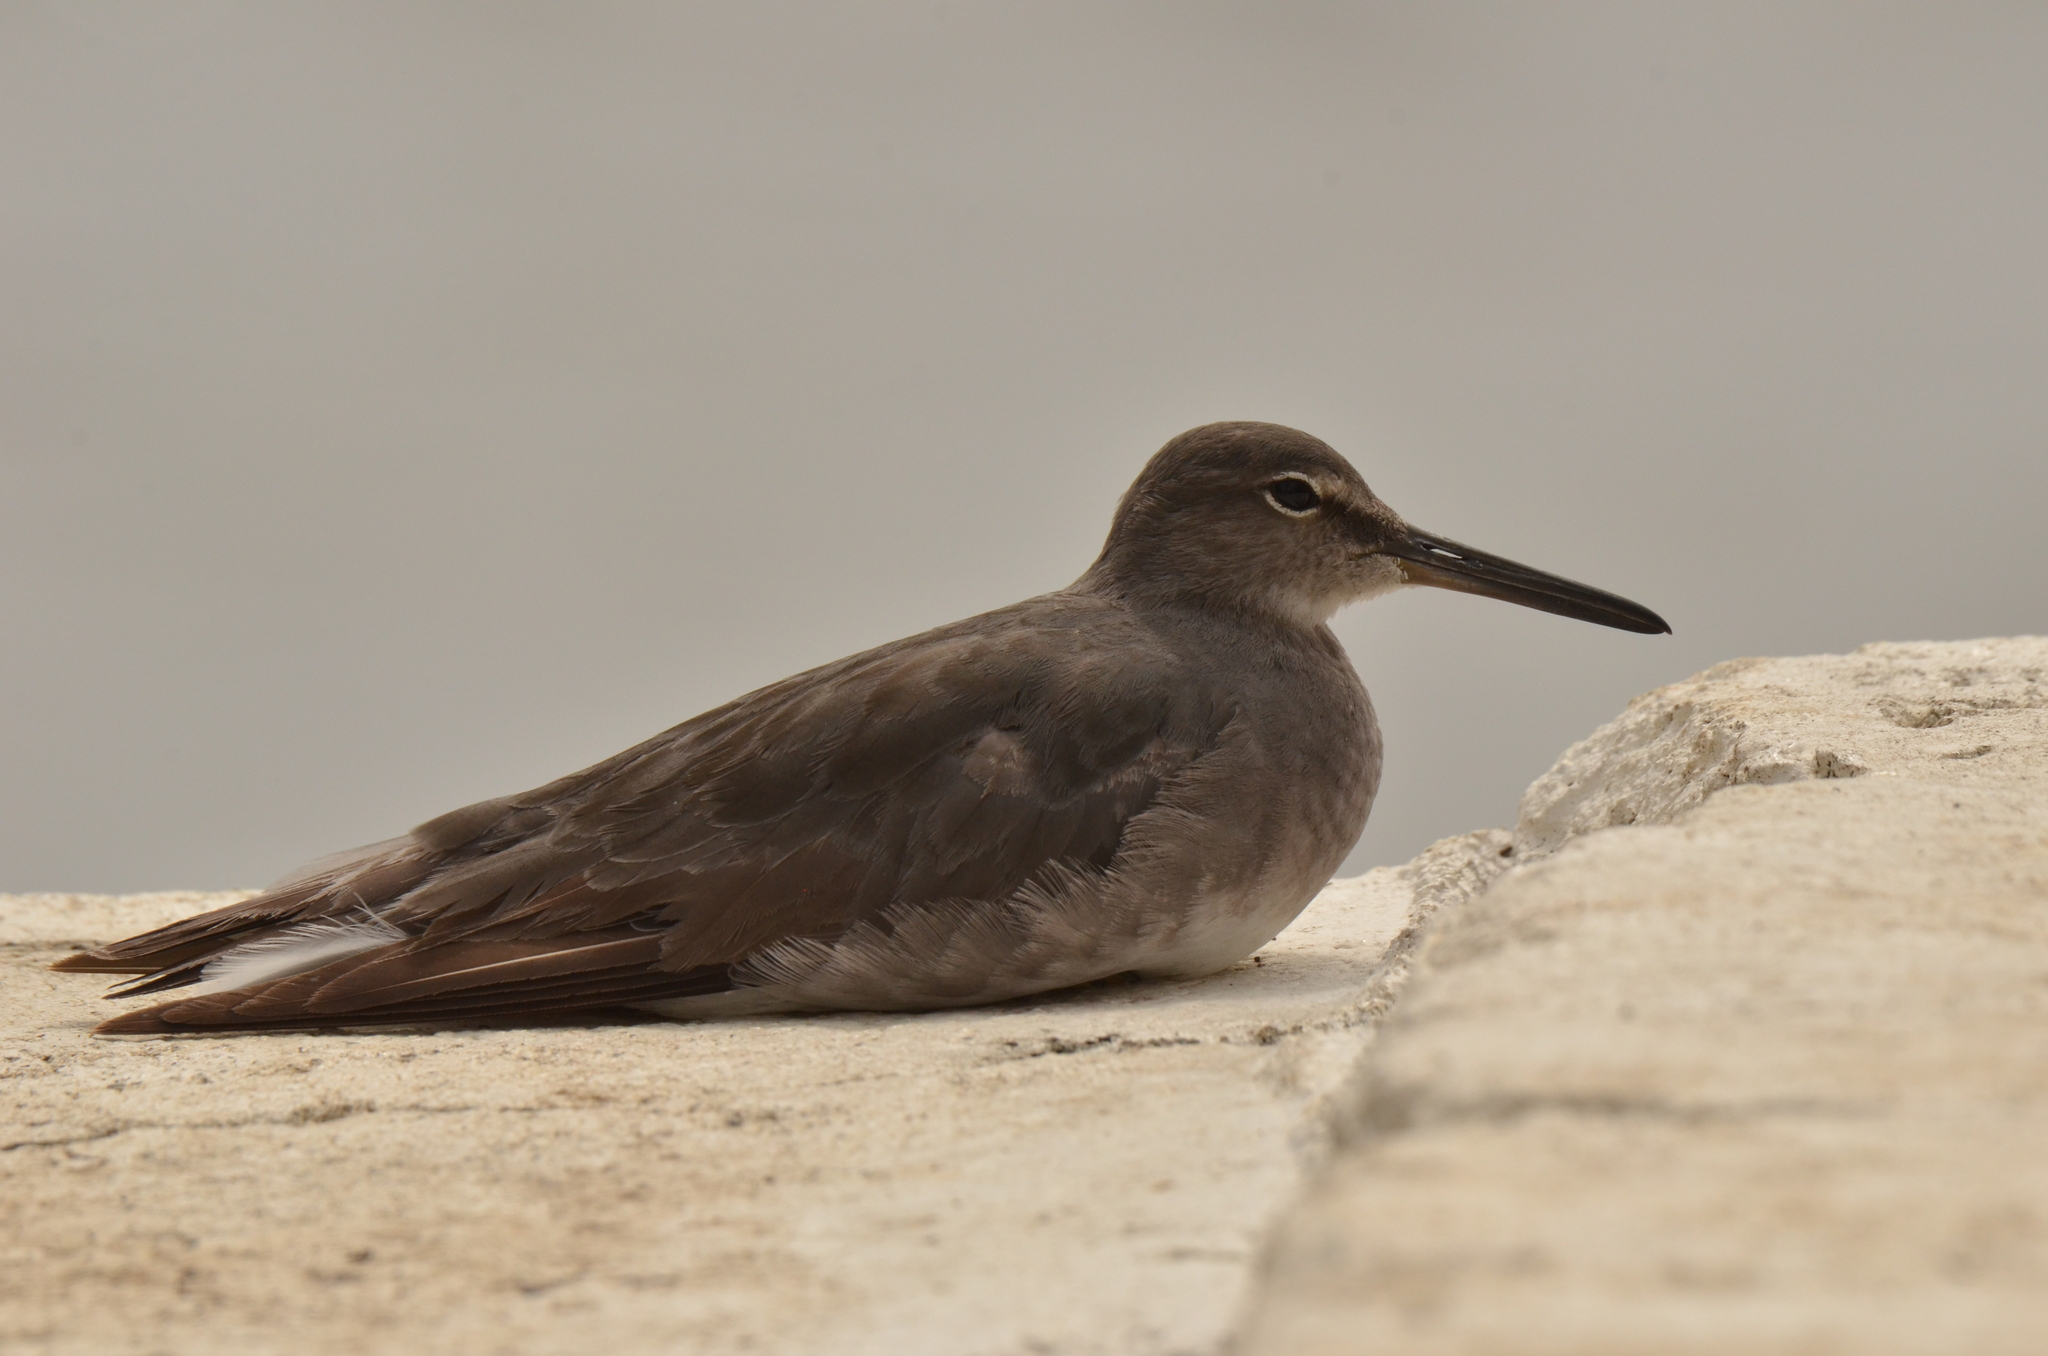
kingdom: Animalia
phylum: Chordata
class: Aves
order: Charadriiformes
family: Scolopacidae
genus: Tringa
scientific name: Tringa incana
